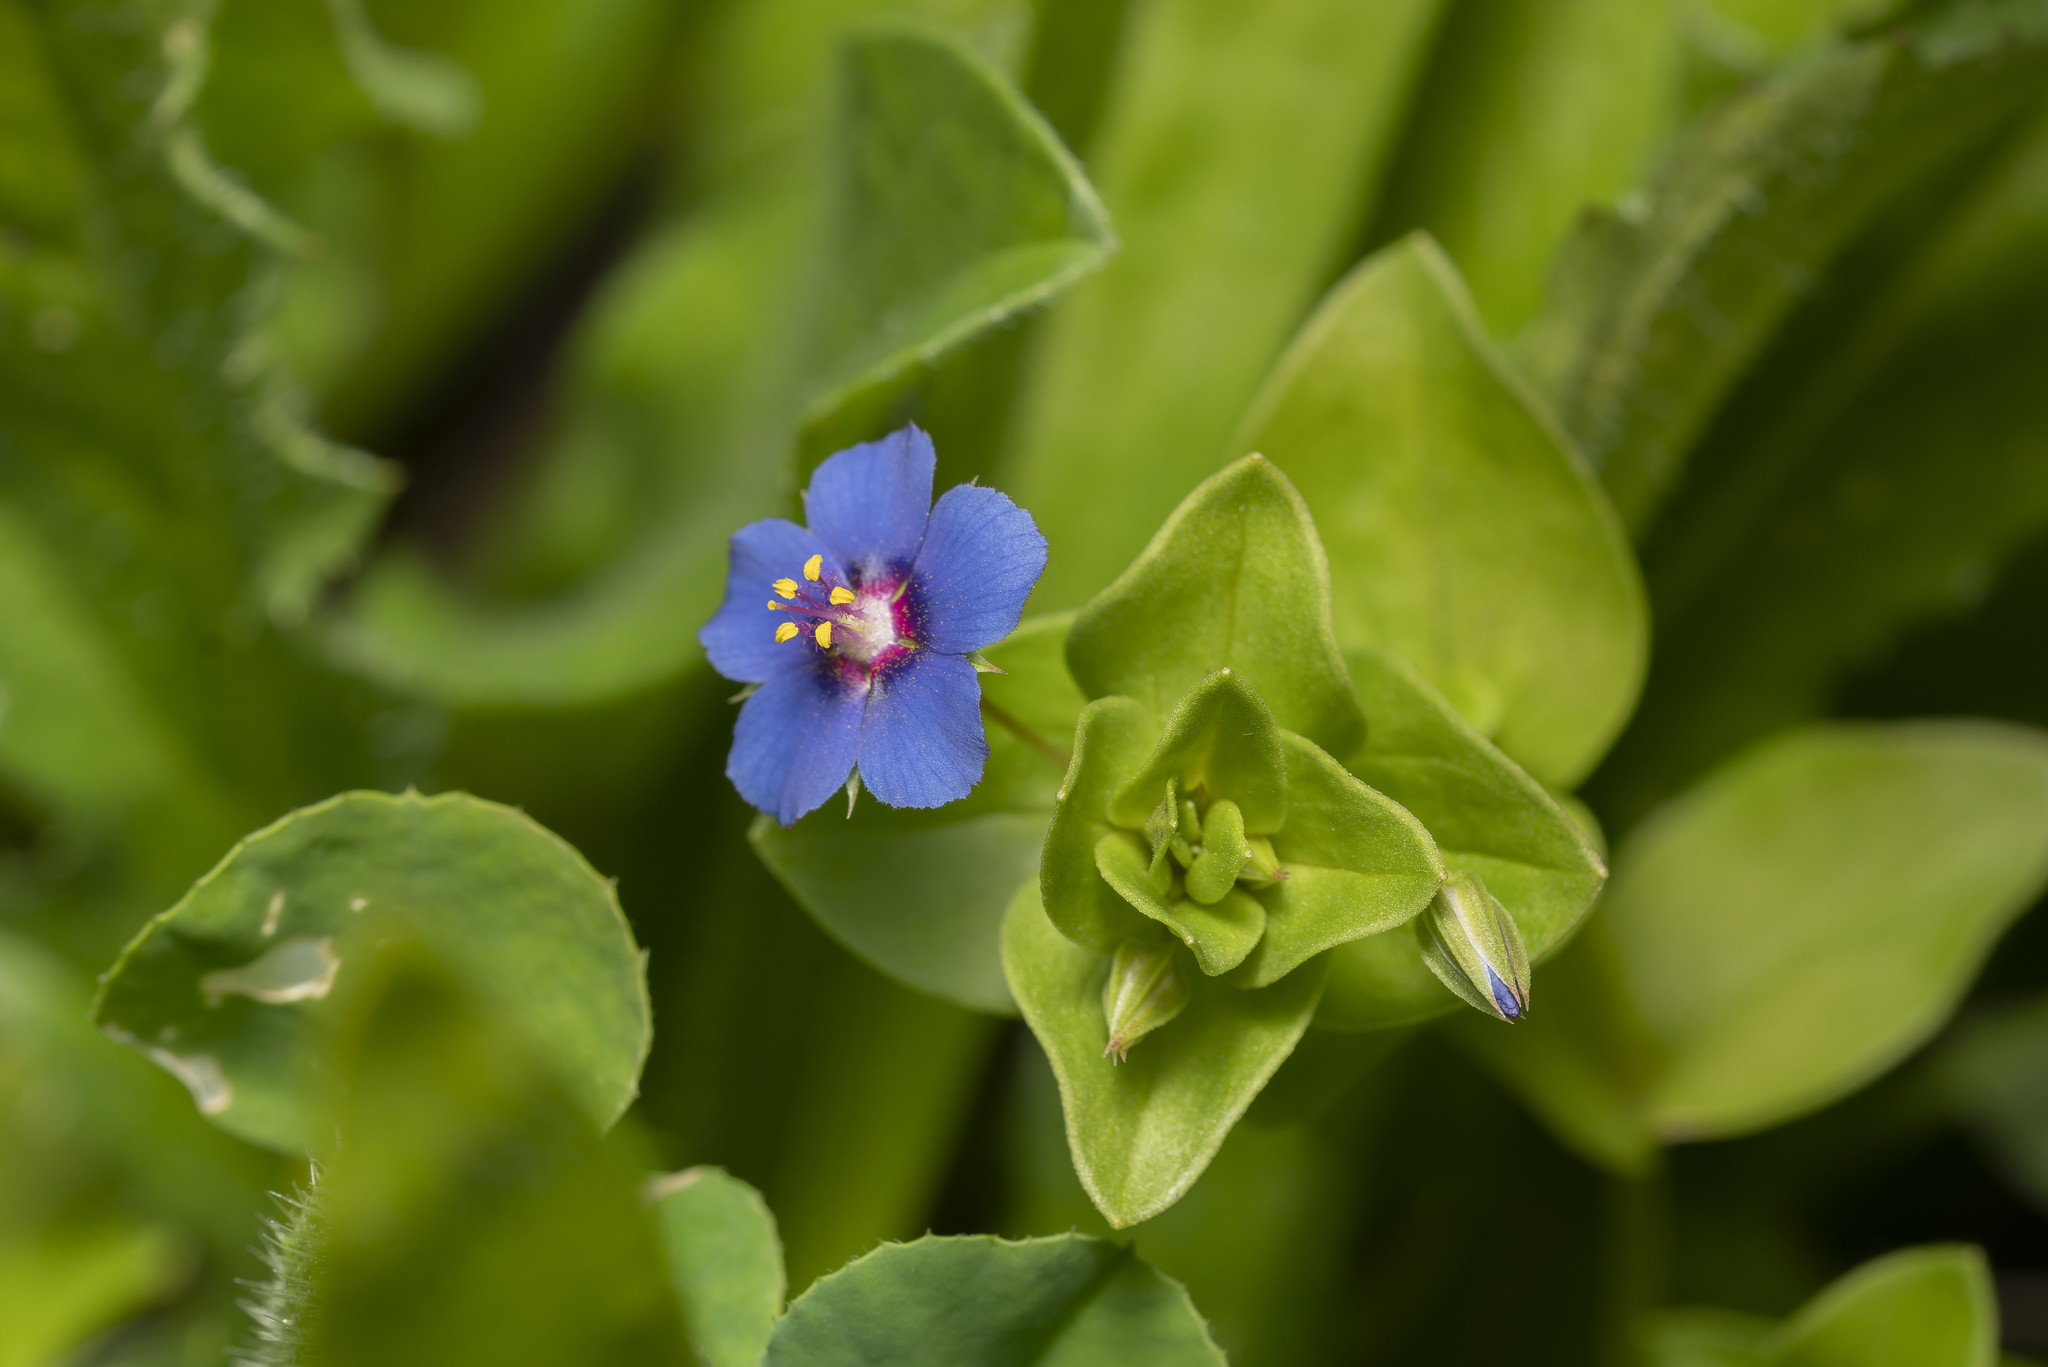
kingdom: Plantae
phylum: Tracheophyta
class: Magnoliopsida
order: Ericales
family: Primulaceae
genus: Lysimachia
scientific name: Lysimachia loeflingii
